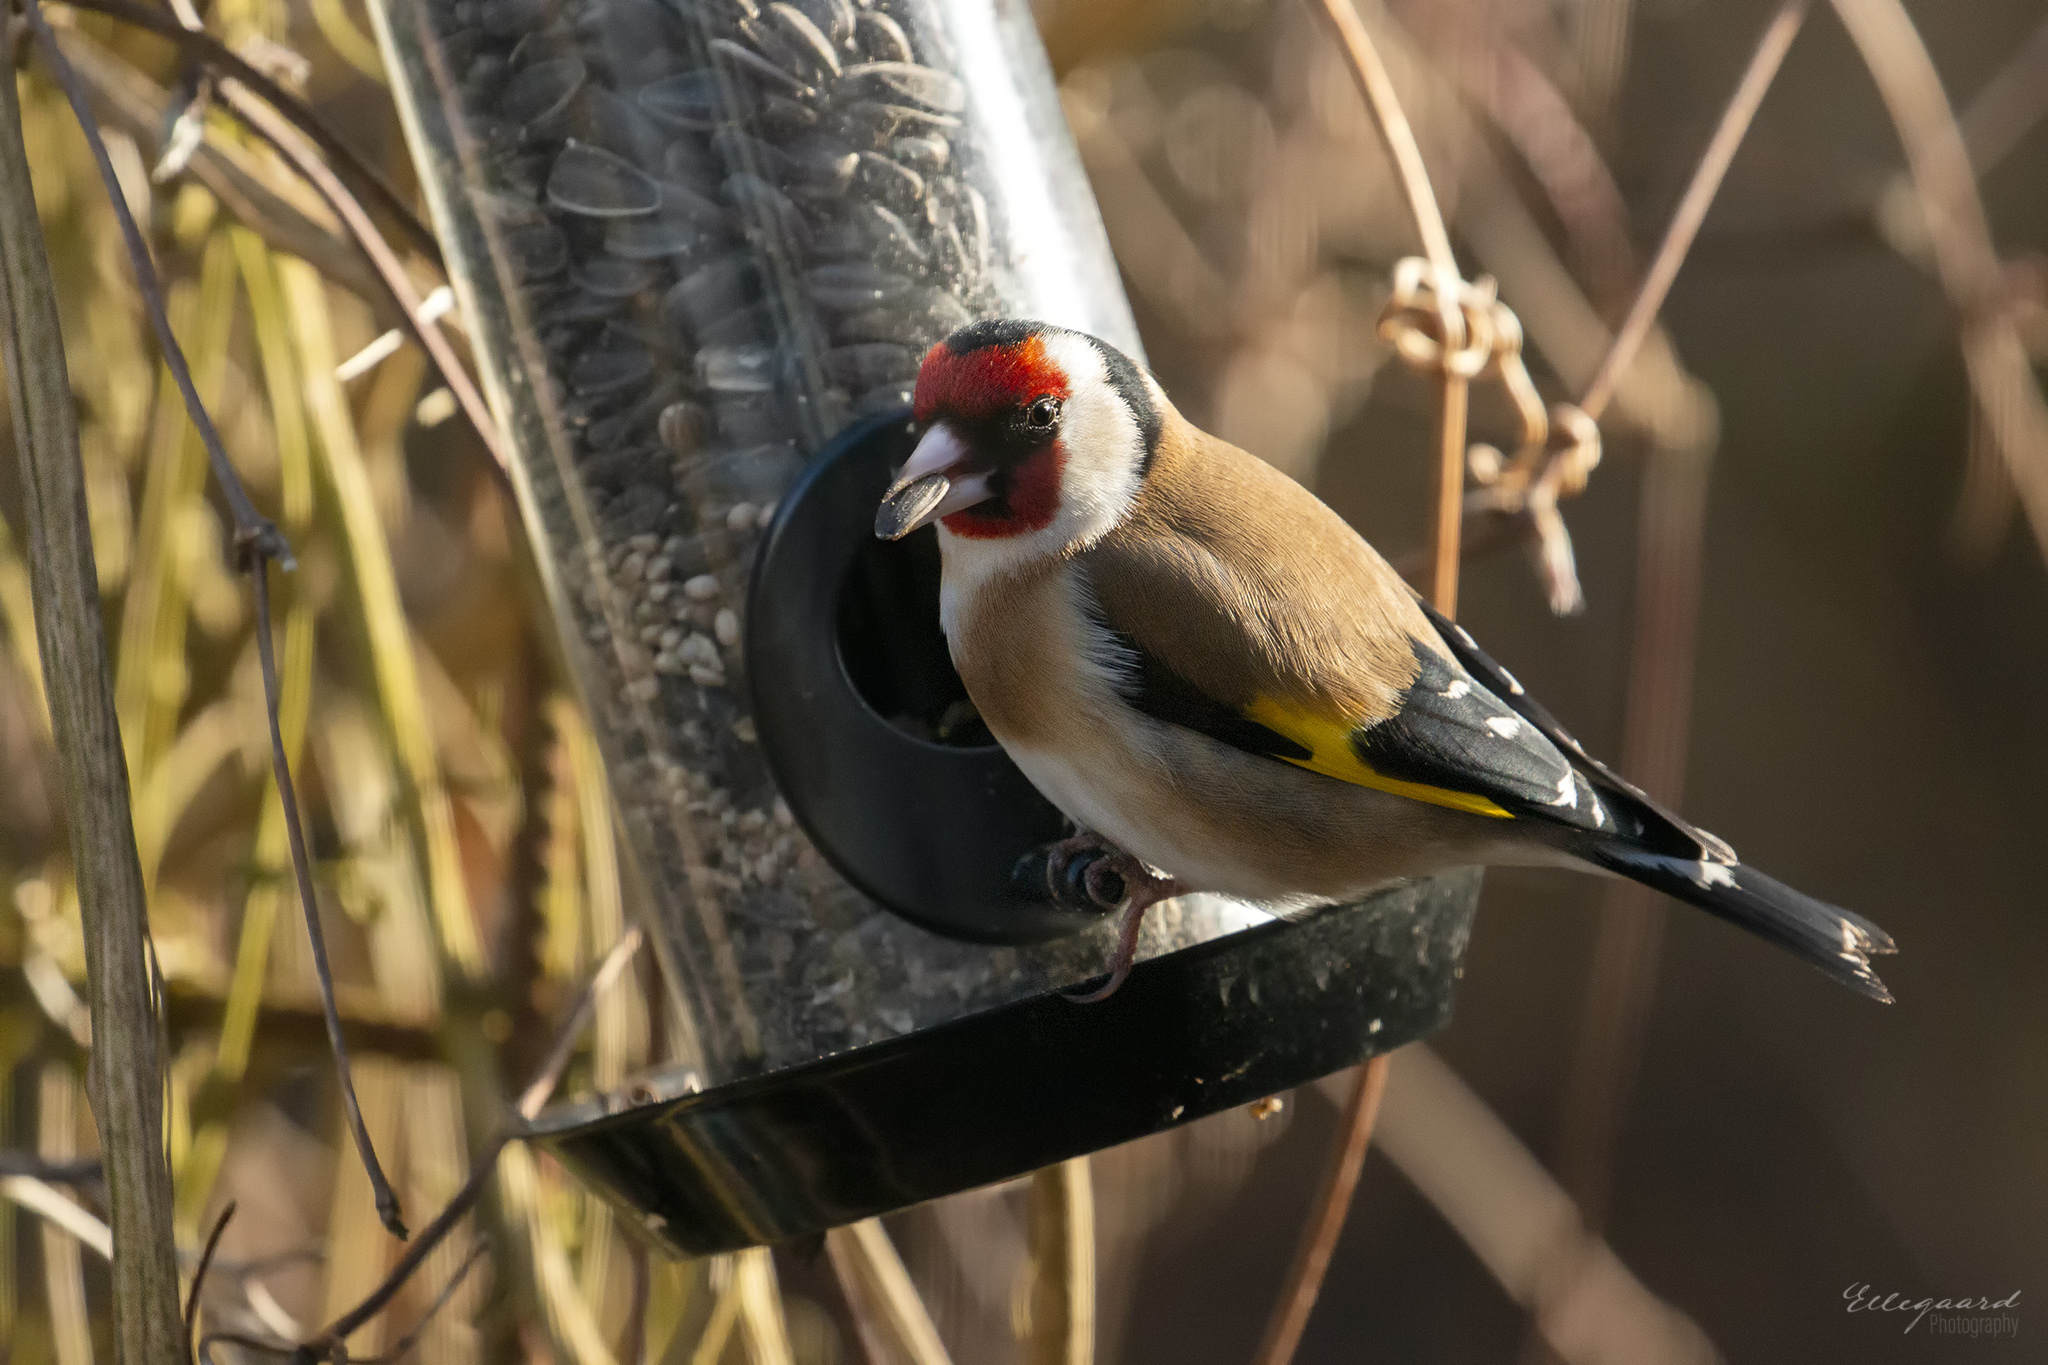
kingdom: Animalia
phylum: Chordata
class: Aves
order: Passeriformes
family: Fringillidae
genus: Carduelis
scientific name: Carduelis carduelis
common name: European goldfinch
